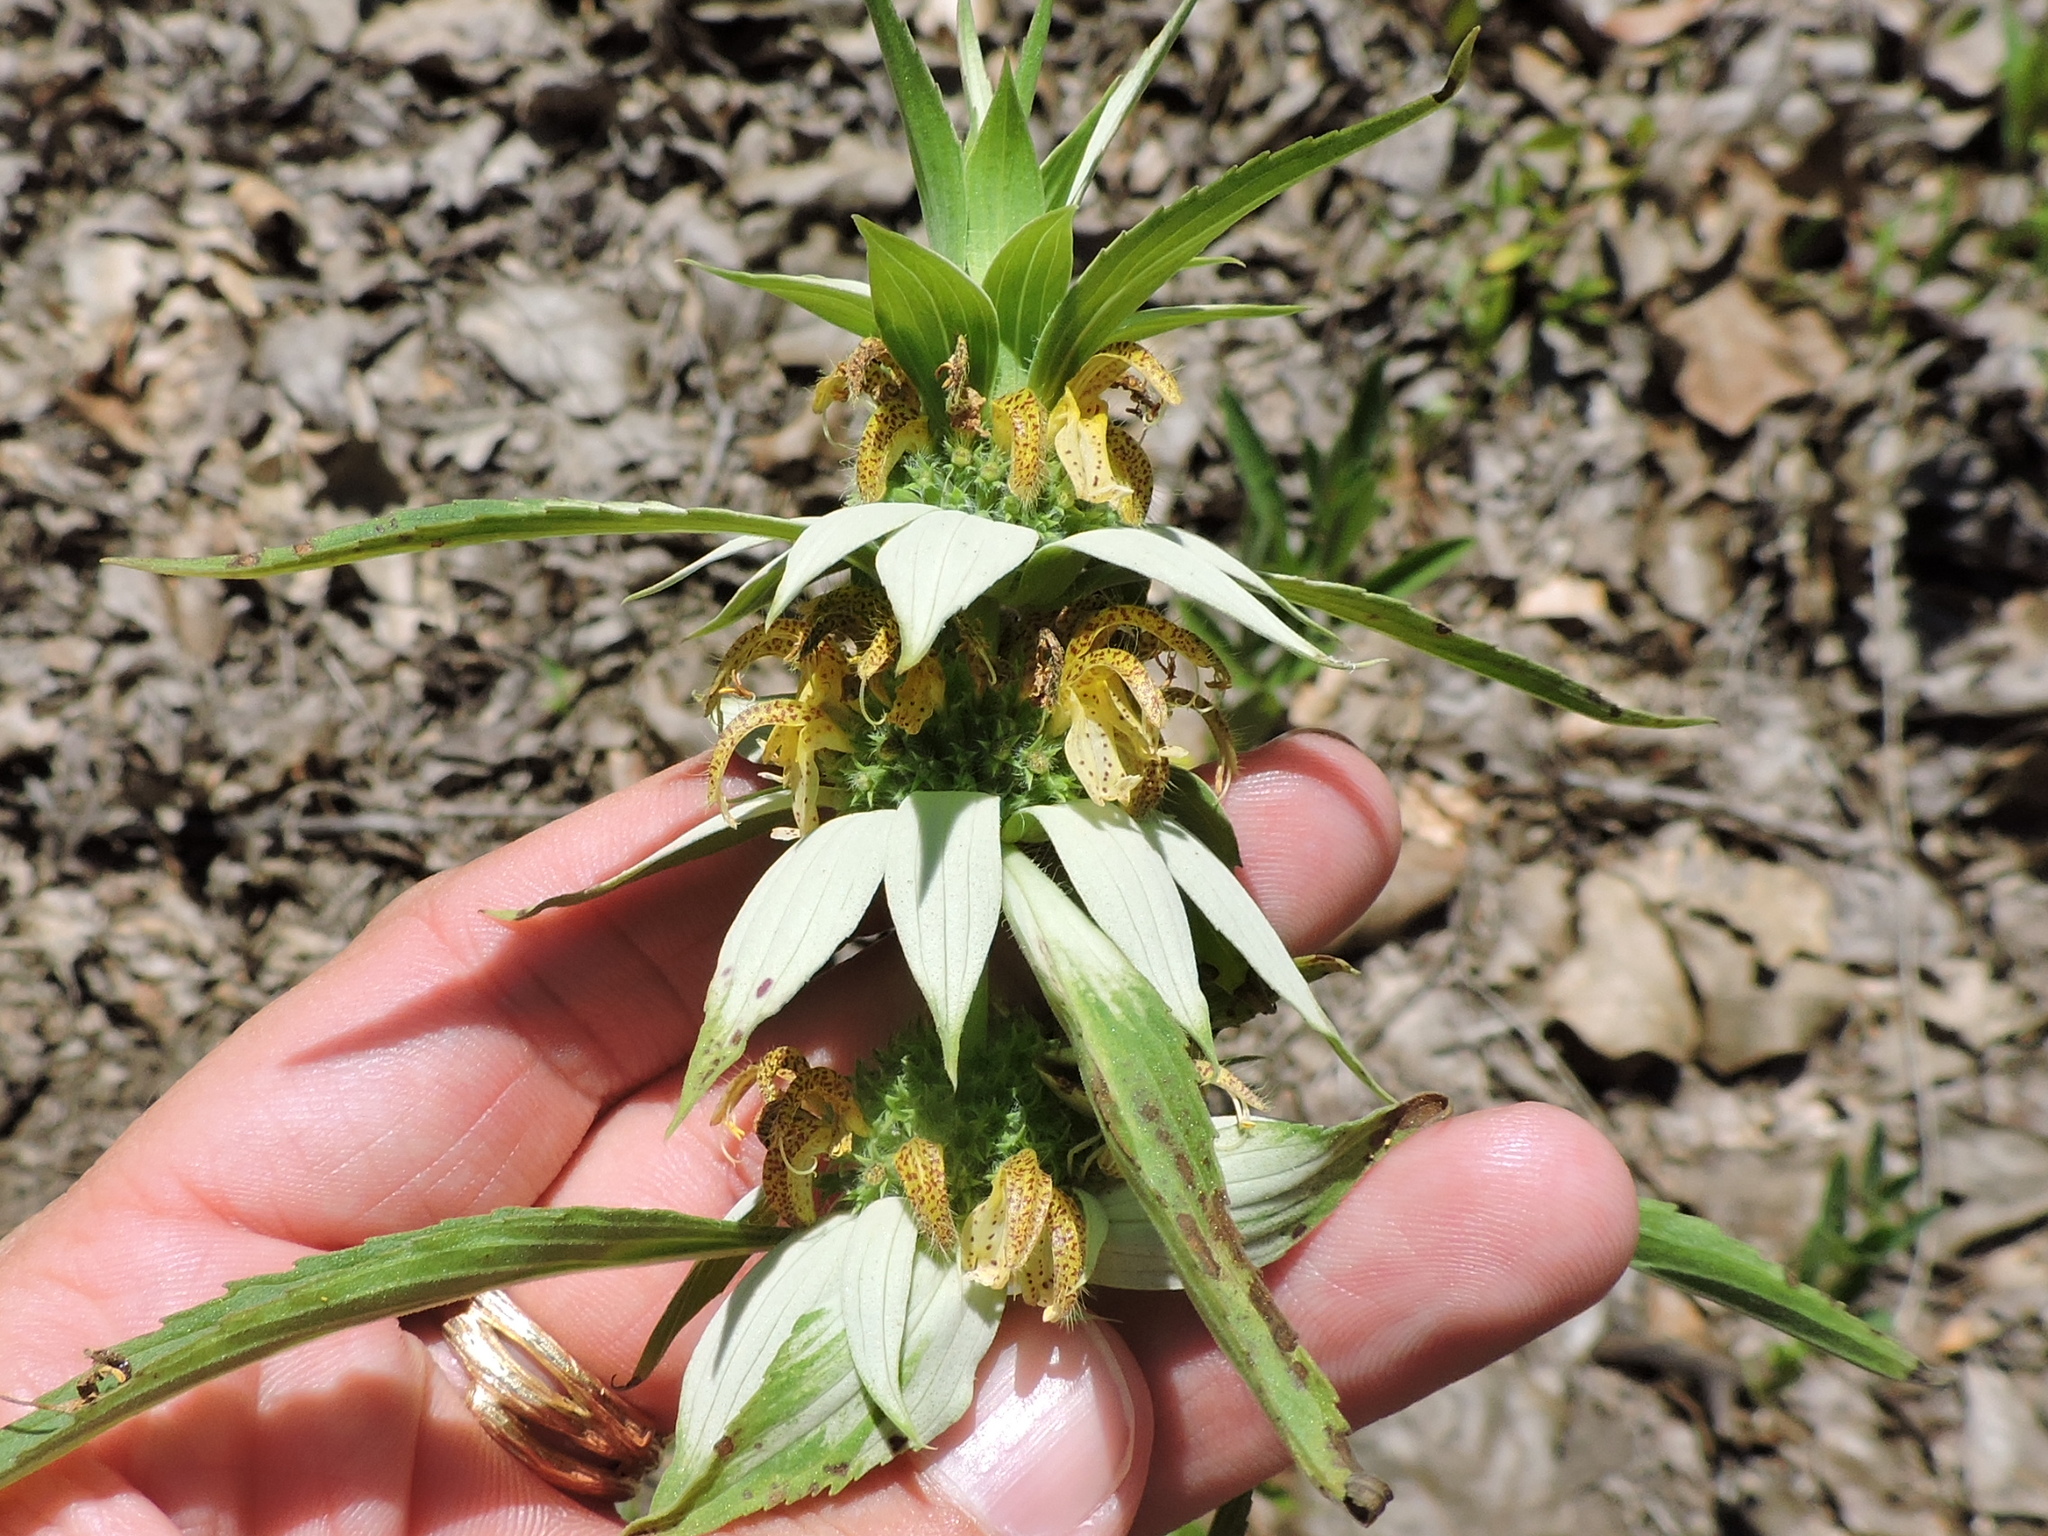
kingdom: Plantae
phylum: Tracheophyta
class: Magnoliopsida
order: Lamiales
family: Lamiaceae
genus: Monarda
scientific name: Monarda punctata
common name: Dotted monarda
